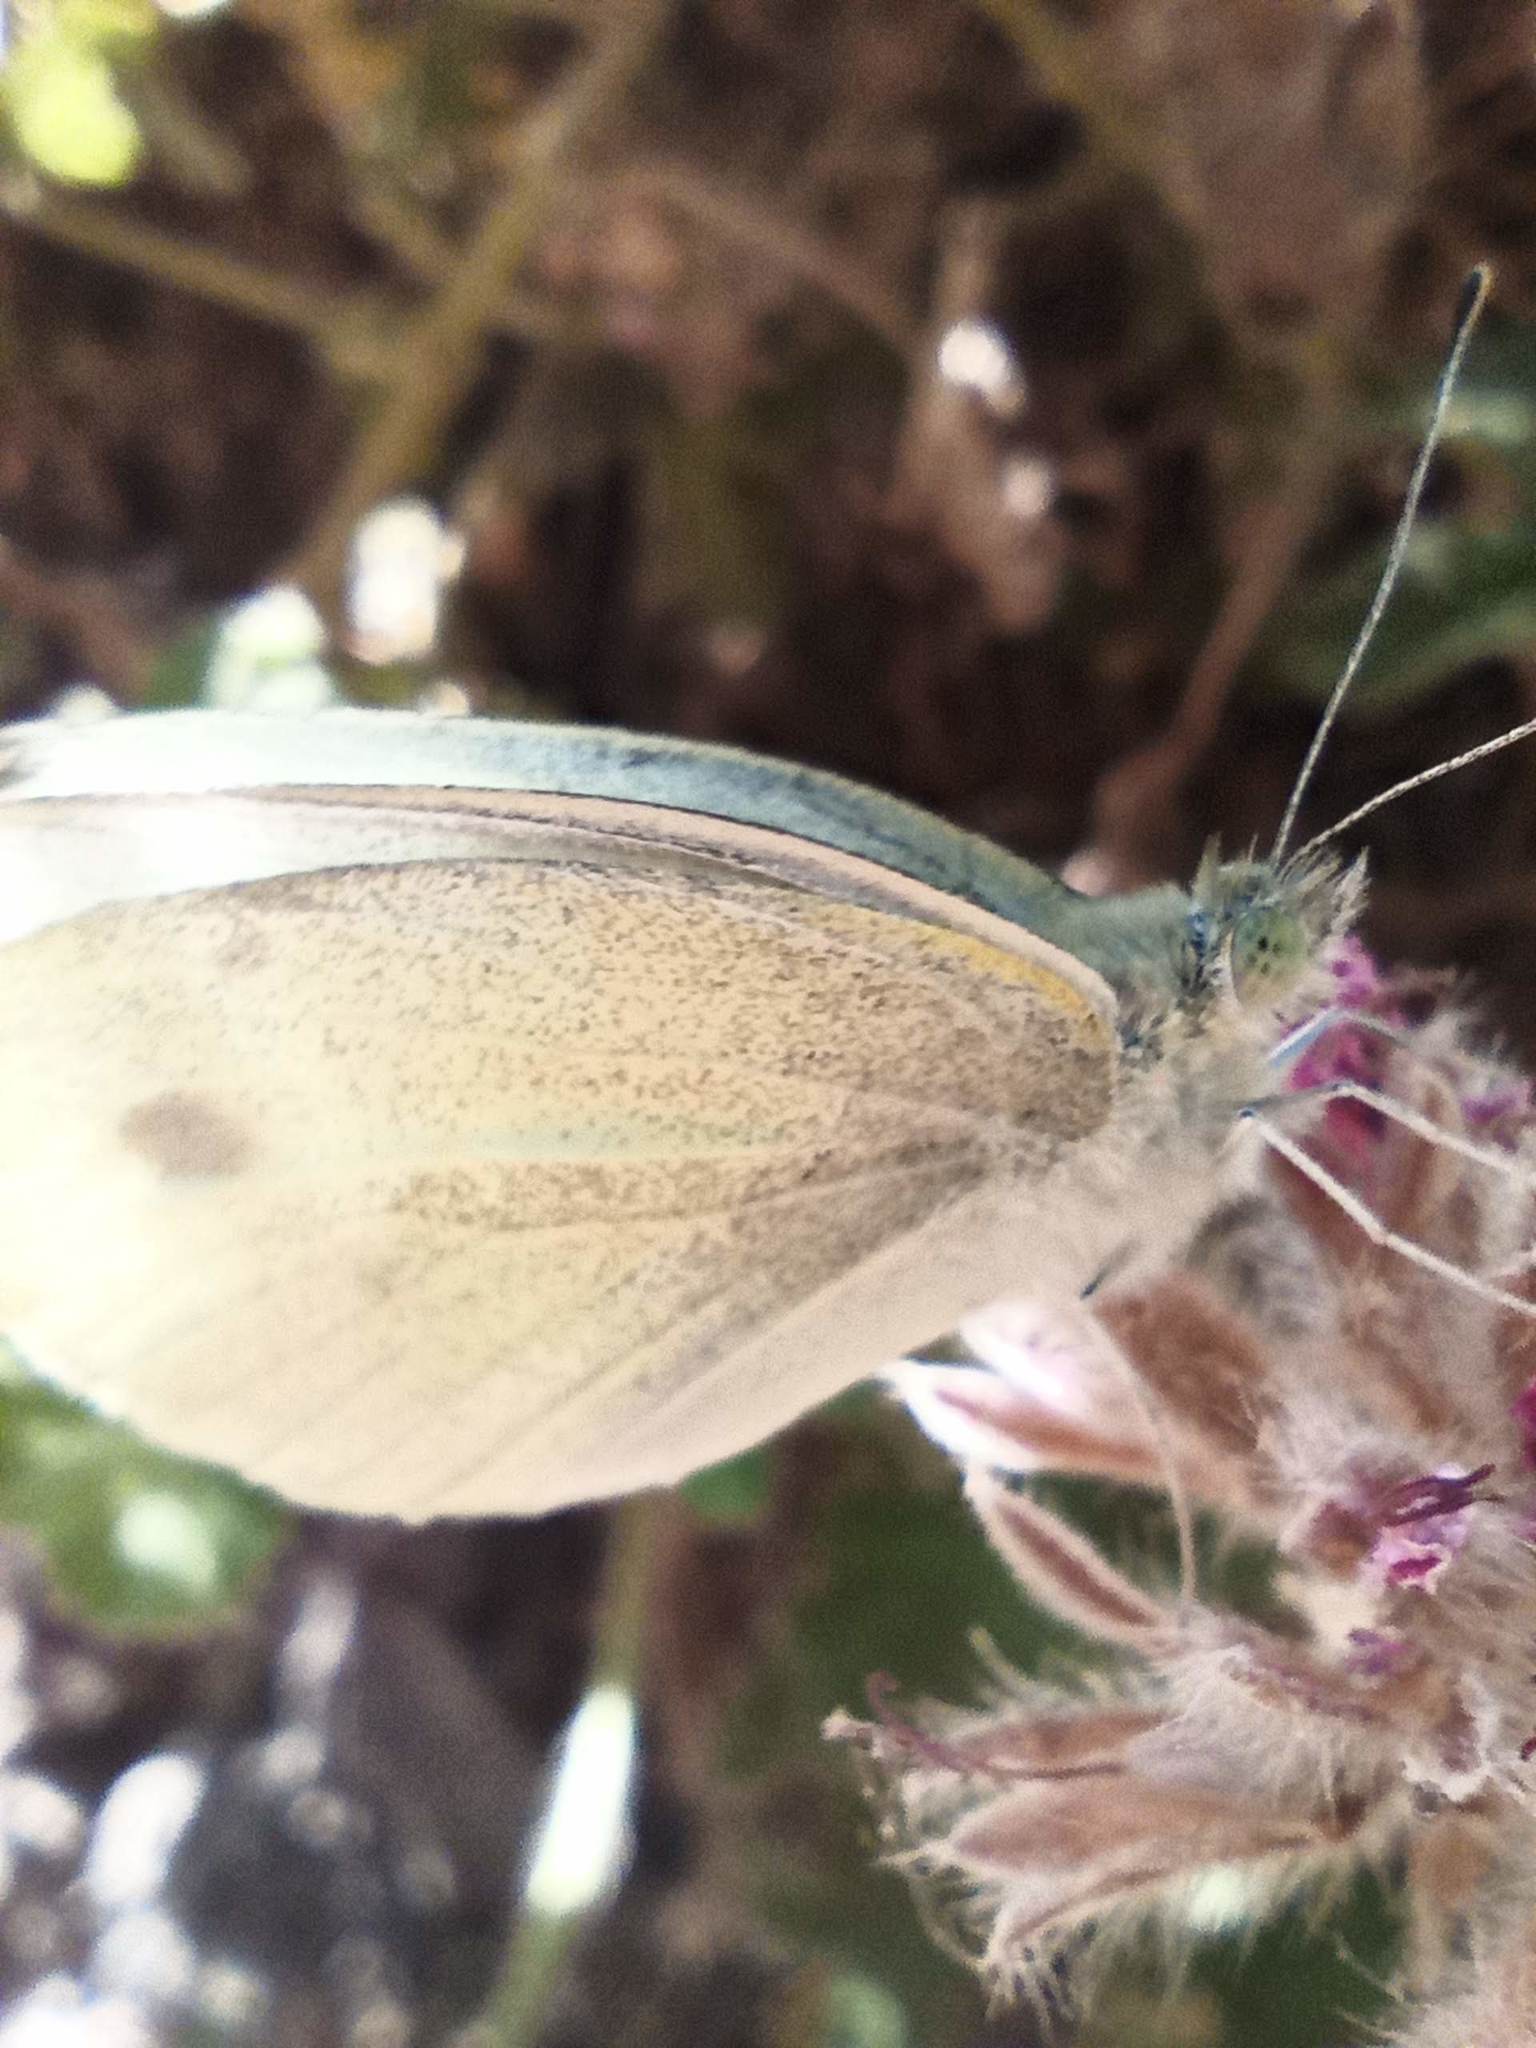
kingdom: Animalia
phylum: Arthropoda
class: Insecta
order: Lepidoptera
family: Pieridae
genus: Pieris
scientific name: Pieris rapae
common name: Small white
